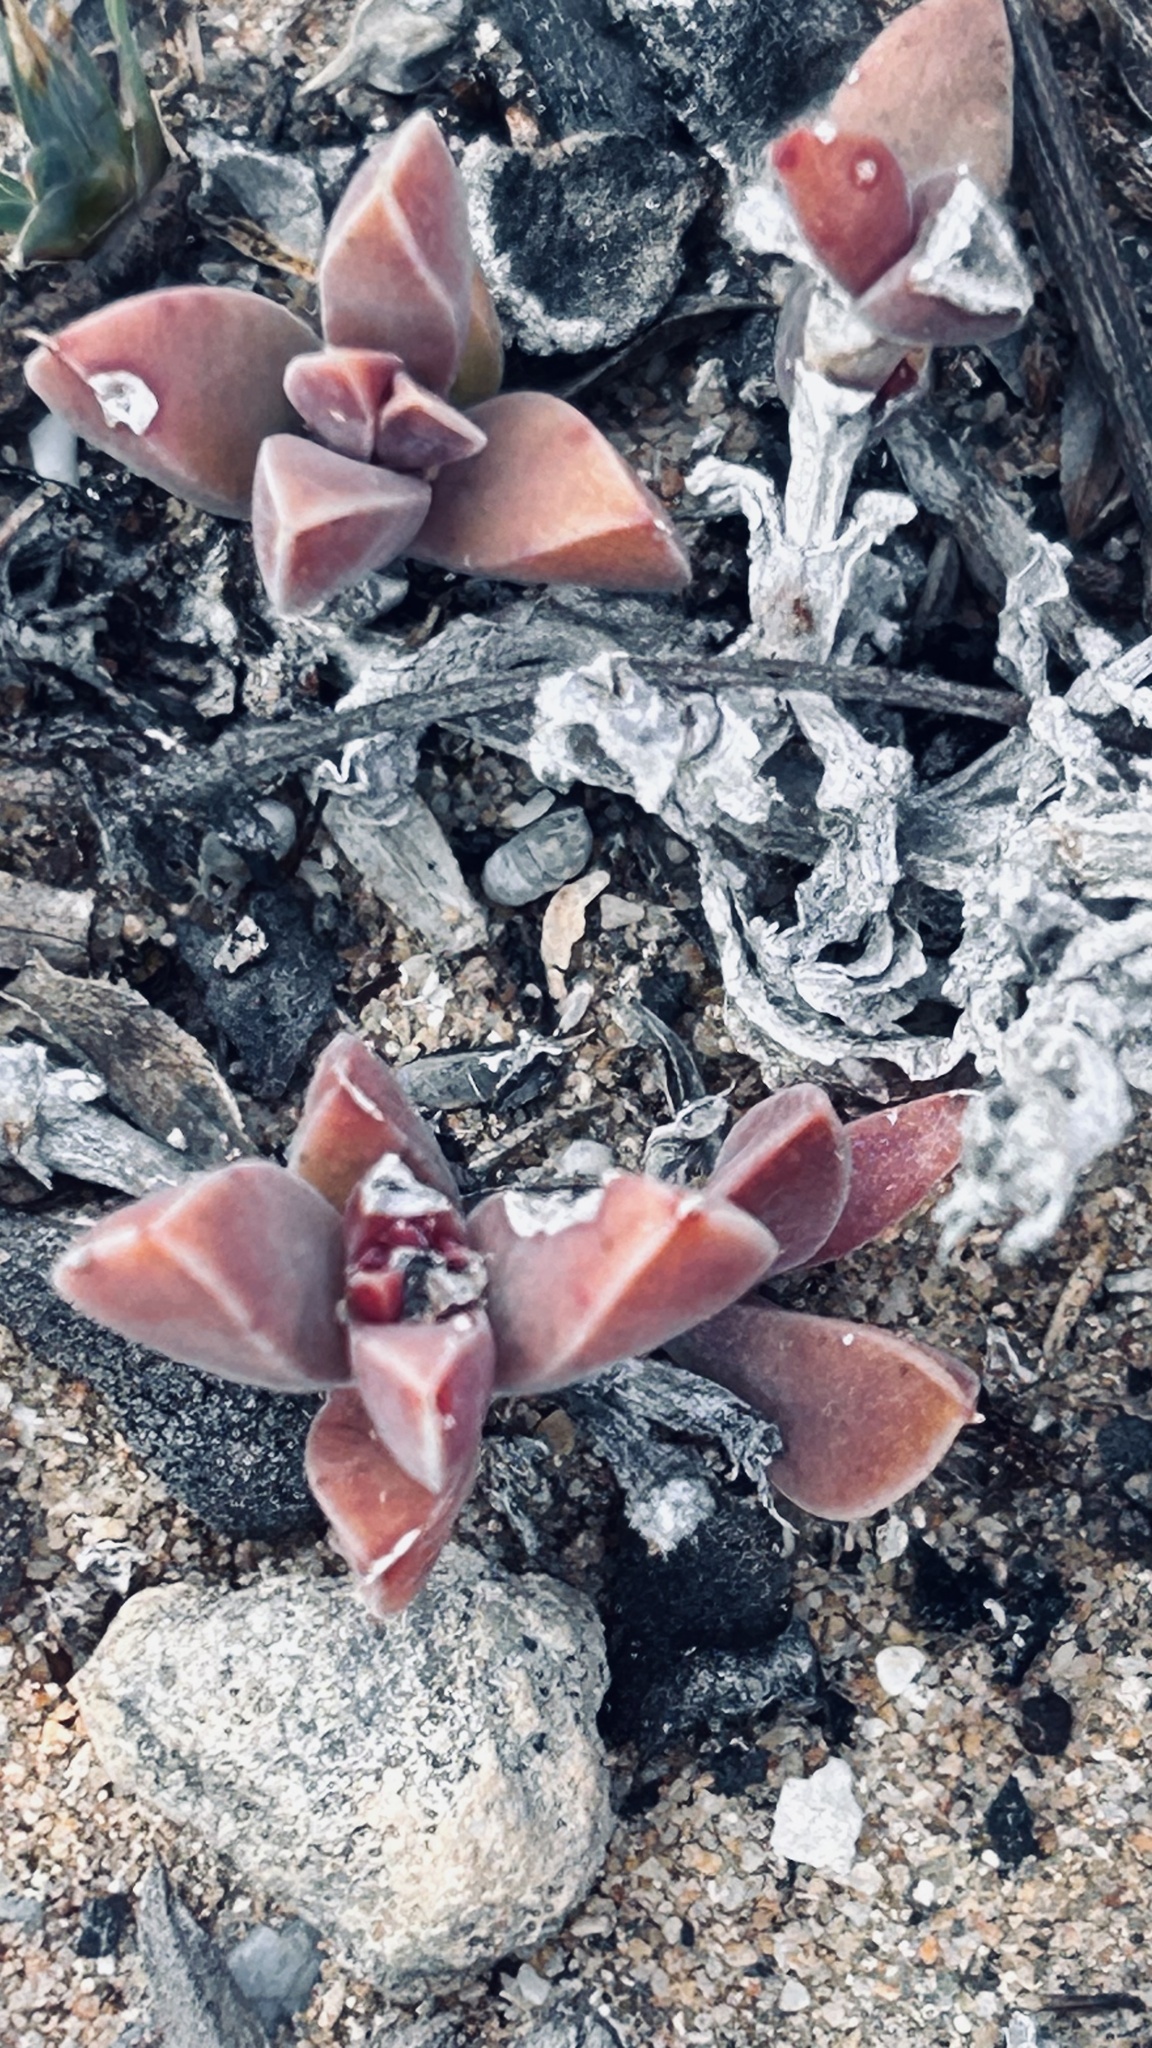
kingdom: Plantae
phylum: Tracheophyta
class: Magnoliopsida
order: Caryophyllales
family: Aizoaceae
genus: Delosperma
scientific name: Delosperma litorale
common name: Seaside delosperma
